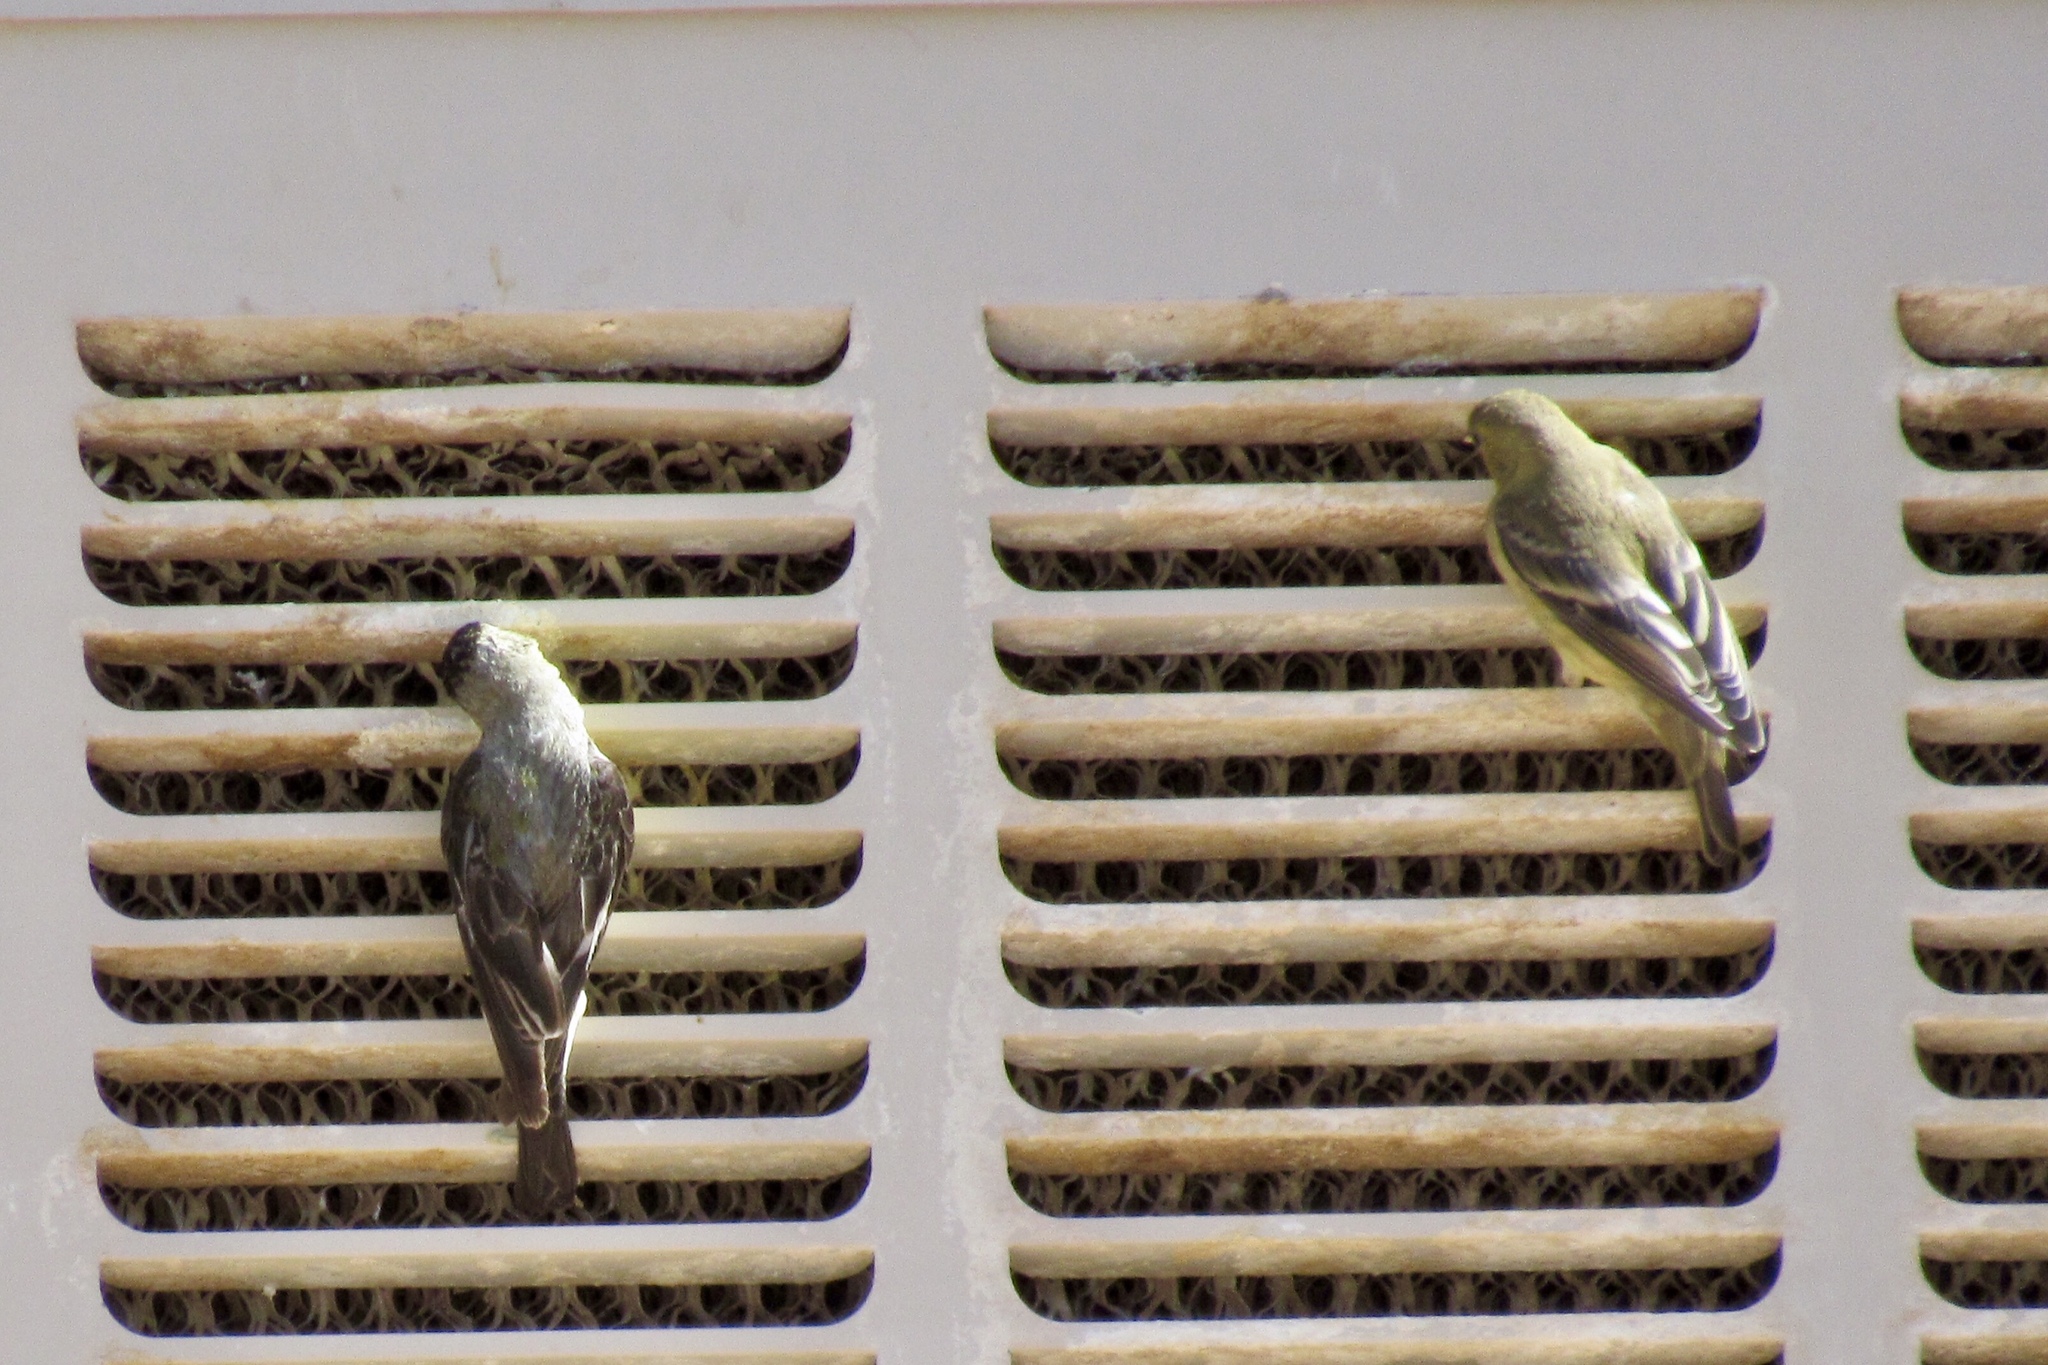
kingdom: Animalia
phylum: Chordata
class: Aves
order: Passeriformes
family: Fringillidae
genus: Spinus
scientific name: Spinus psaltria
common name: Lesser goldfinch
